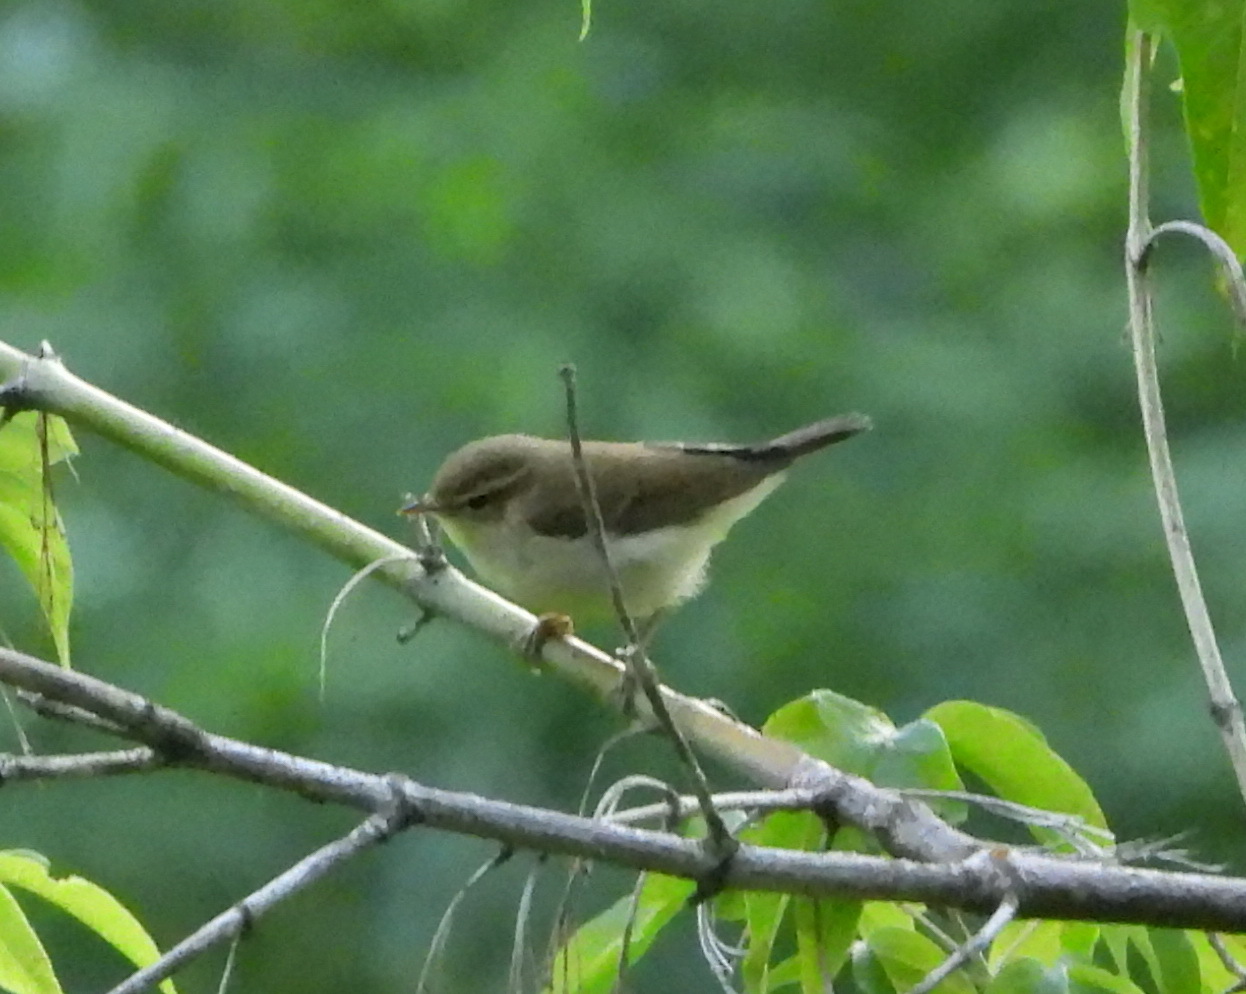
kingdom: Animalia
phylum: Chordata
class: Aves
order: Passeriformes
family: Phylloscopidae
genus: Phylloscopus
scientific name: Phylloscopus trochiloides
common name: Greenish warbler
